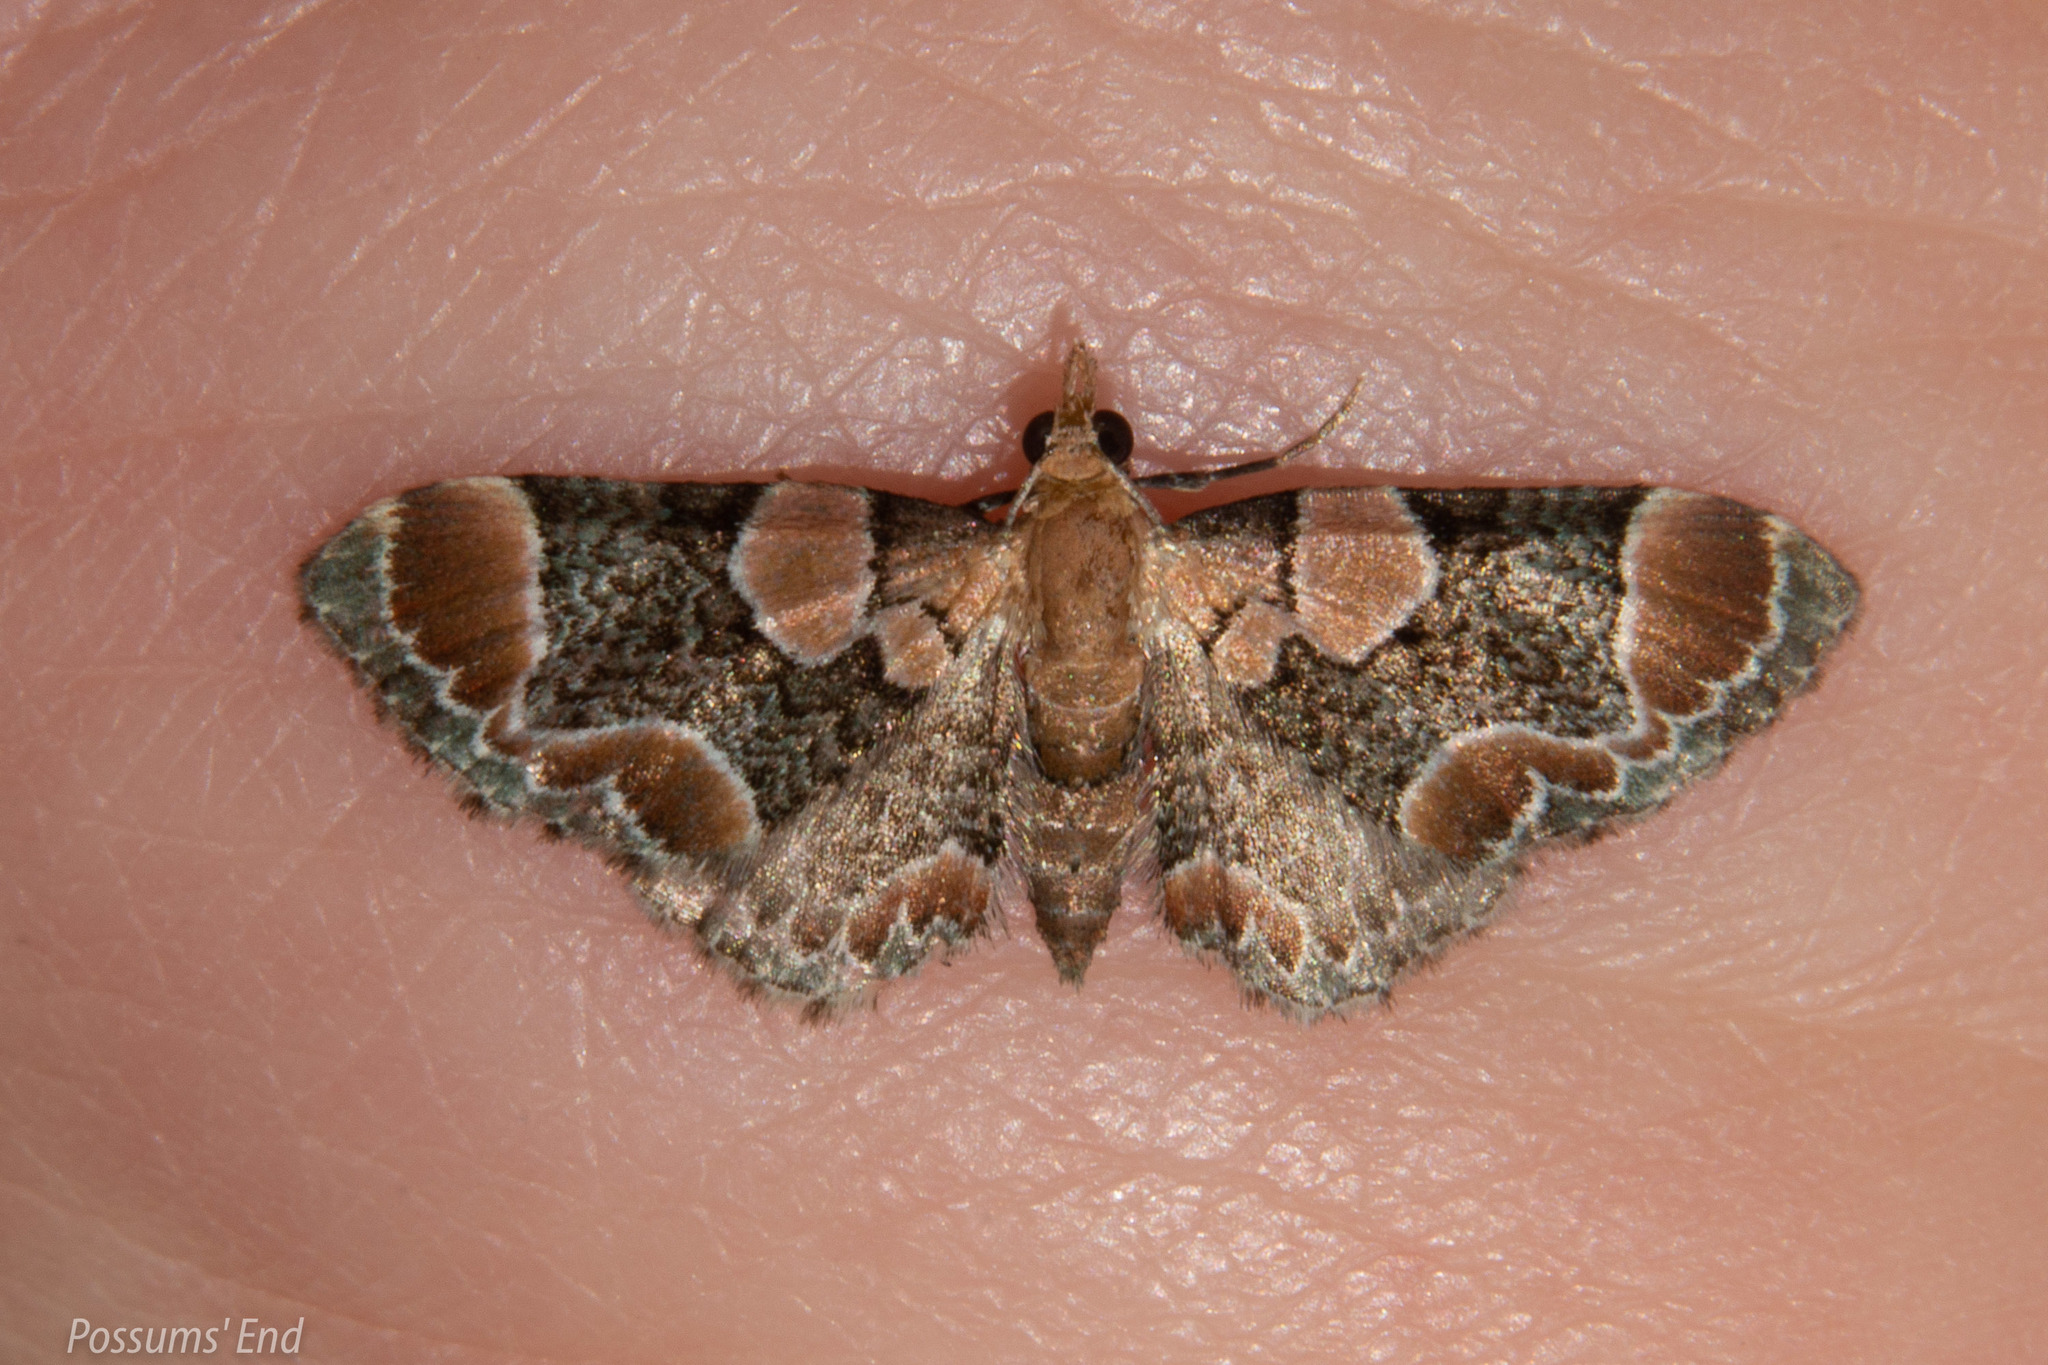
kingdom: Animalia
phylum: Arthropoda
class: Insecta
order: Lepidoptera
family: Geometridae
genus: Chloroclystis
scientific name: Chloroclystis
